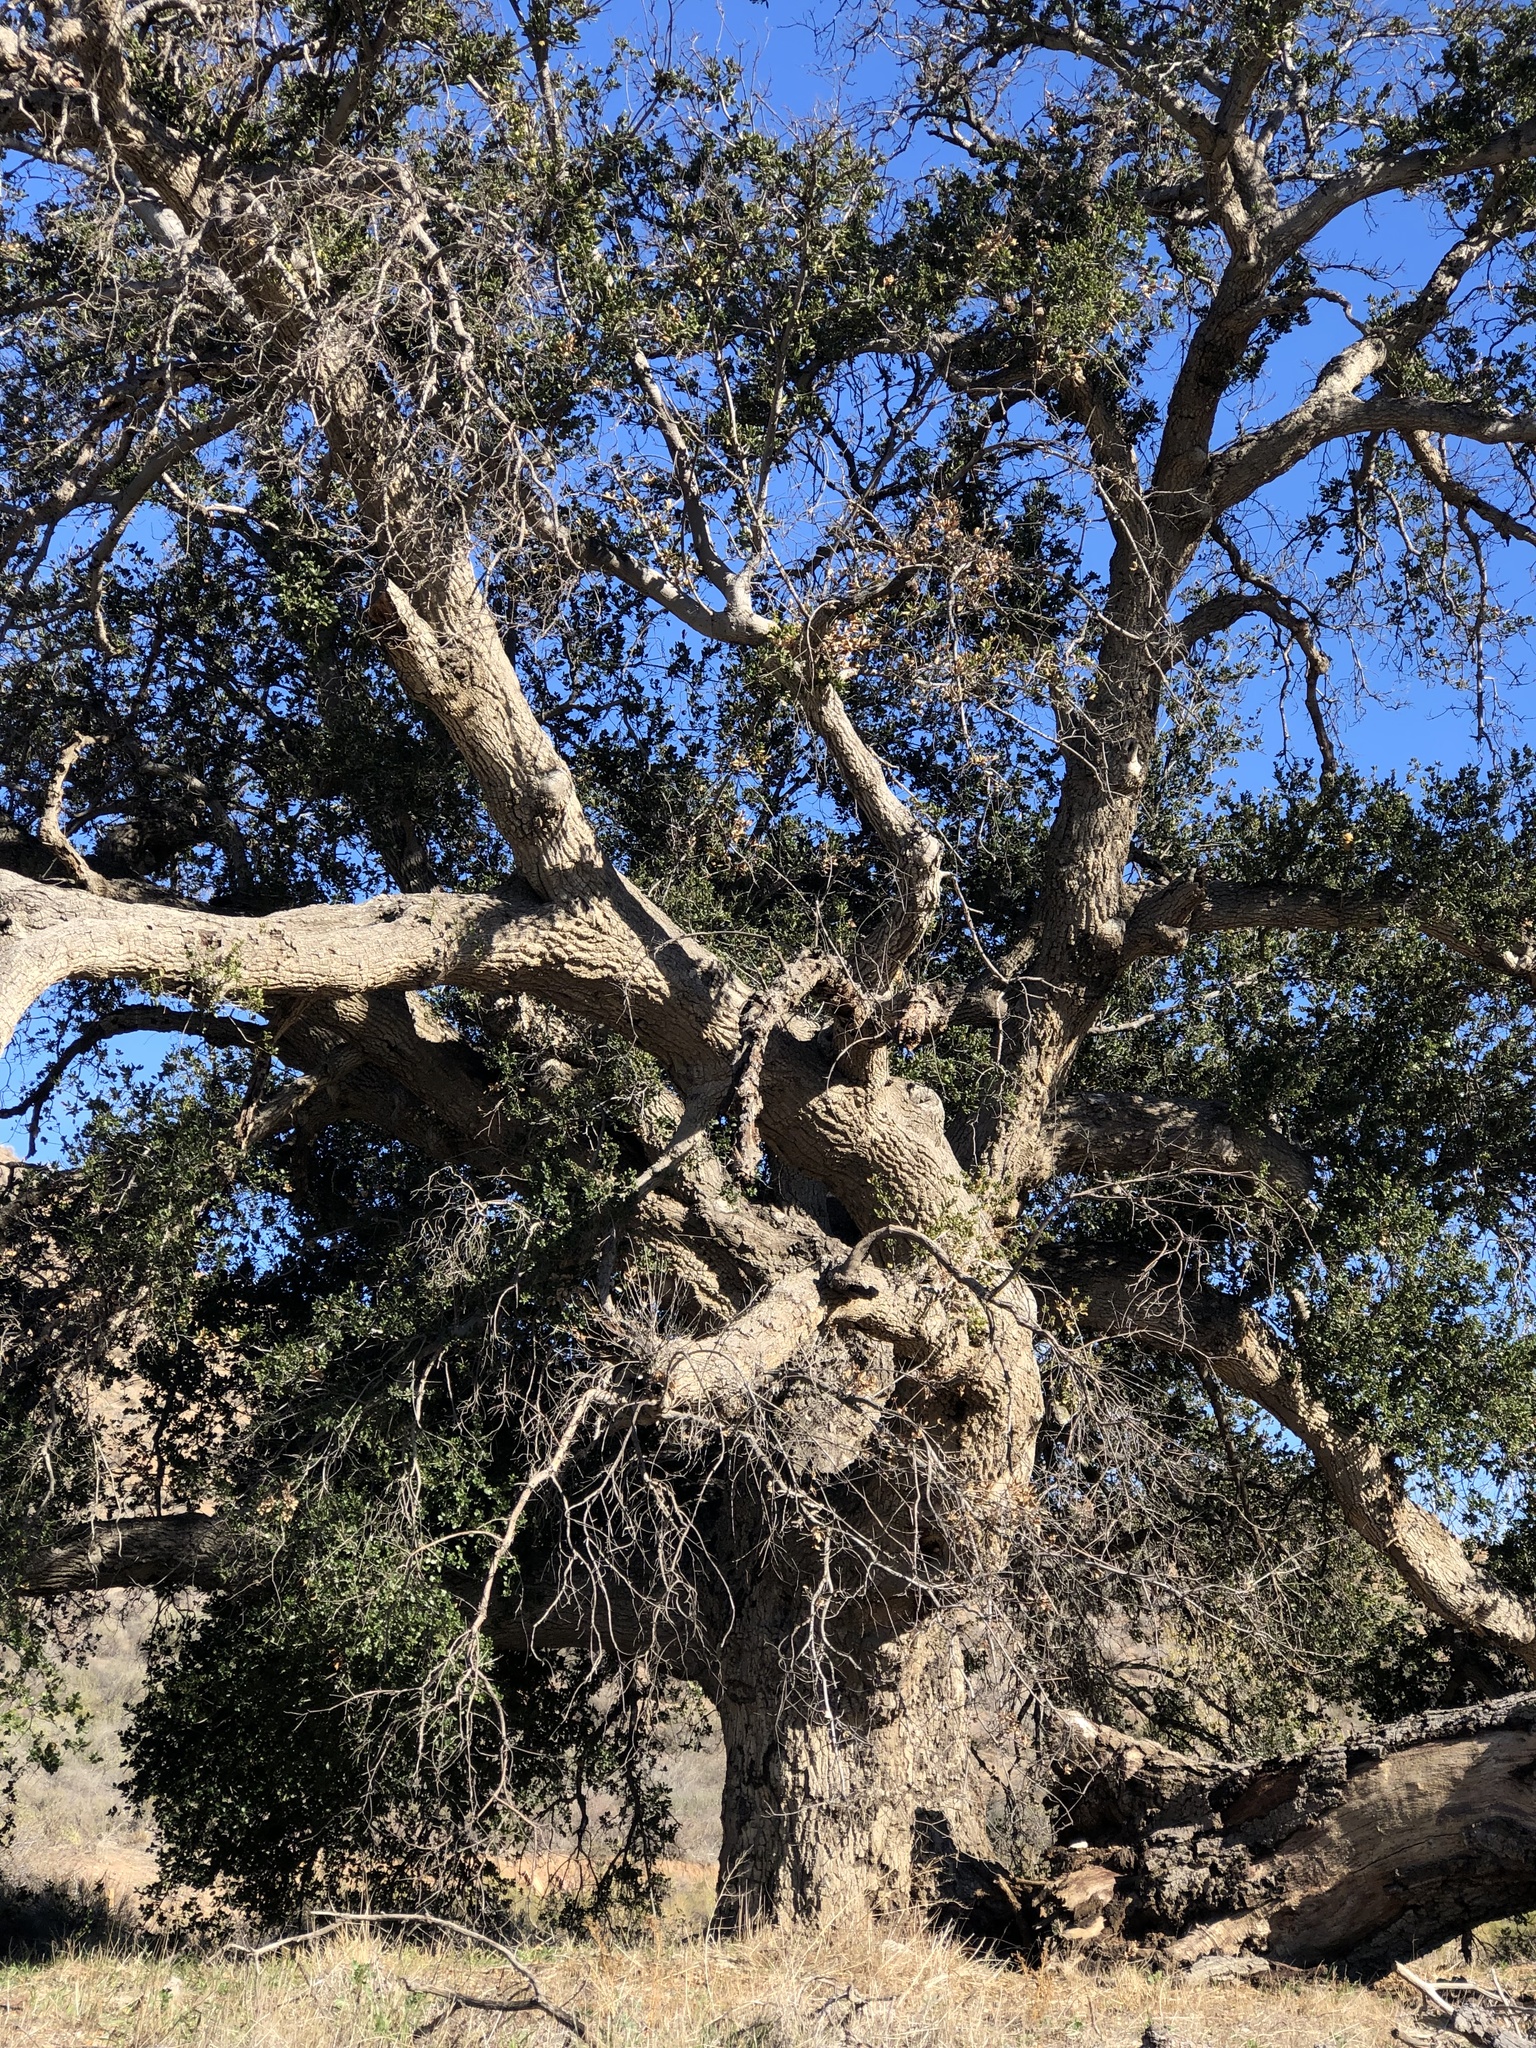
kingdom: Plantae
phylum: Tracheophyta
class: Magnoliopsida
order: Fagales
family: Fagaceae
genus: Quercus
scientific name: Quercus agrifolia
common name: California live oak
